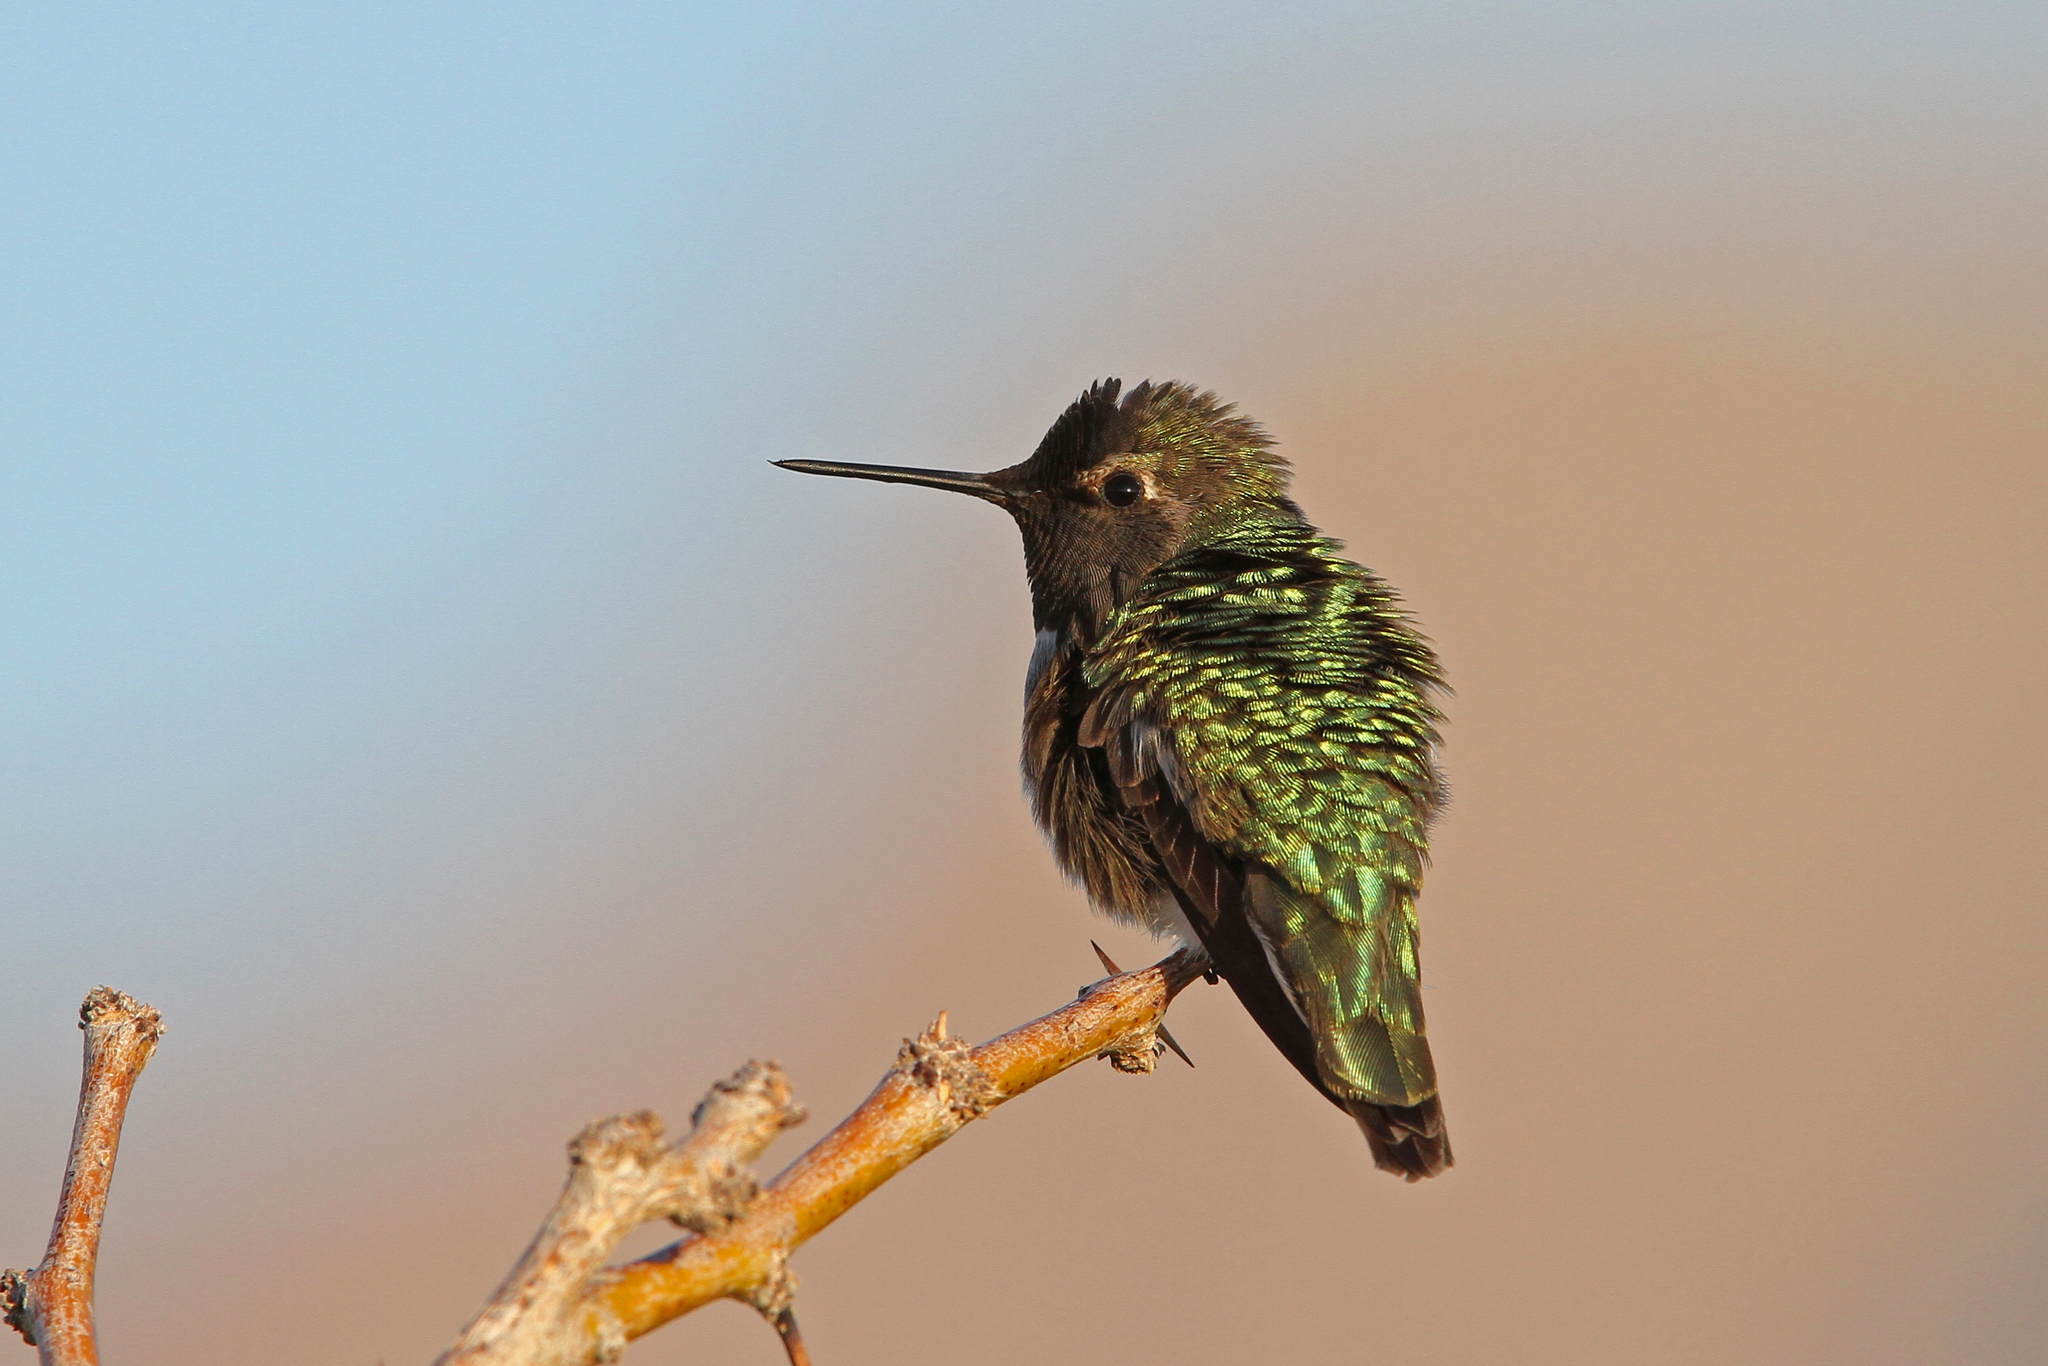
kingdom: Animalia
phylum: Chordata
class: Aves
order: Apodiformes
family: Trochilidae
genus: Calypte
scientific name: Calypte anna
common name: Anna's hummingbird
